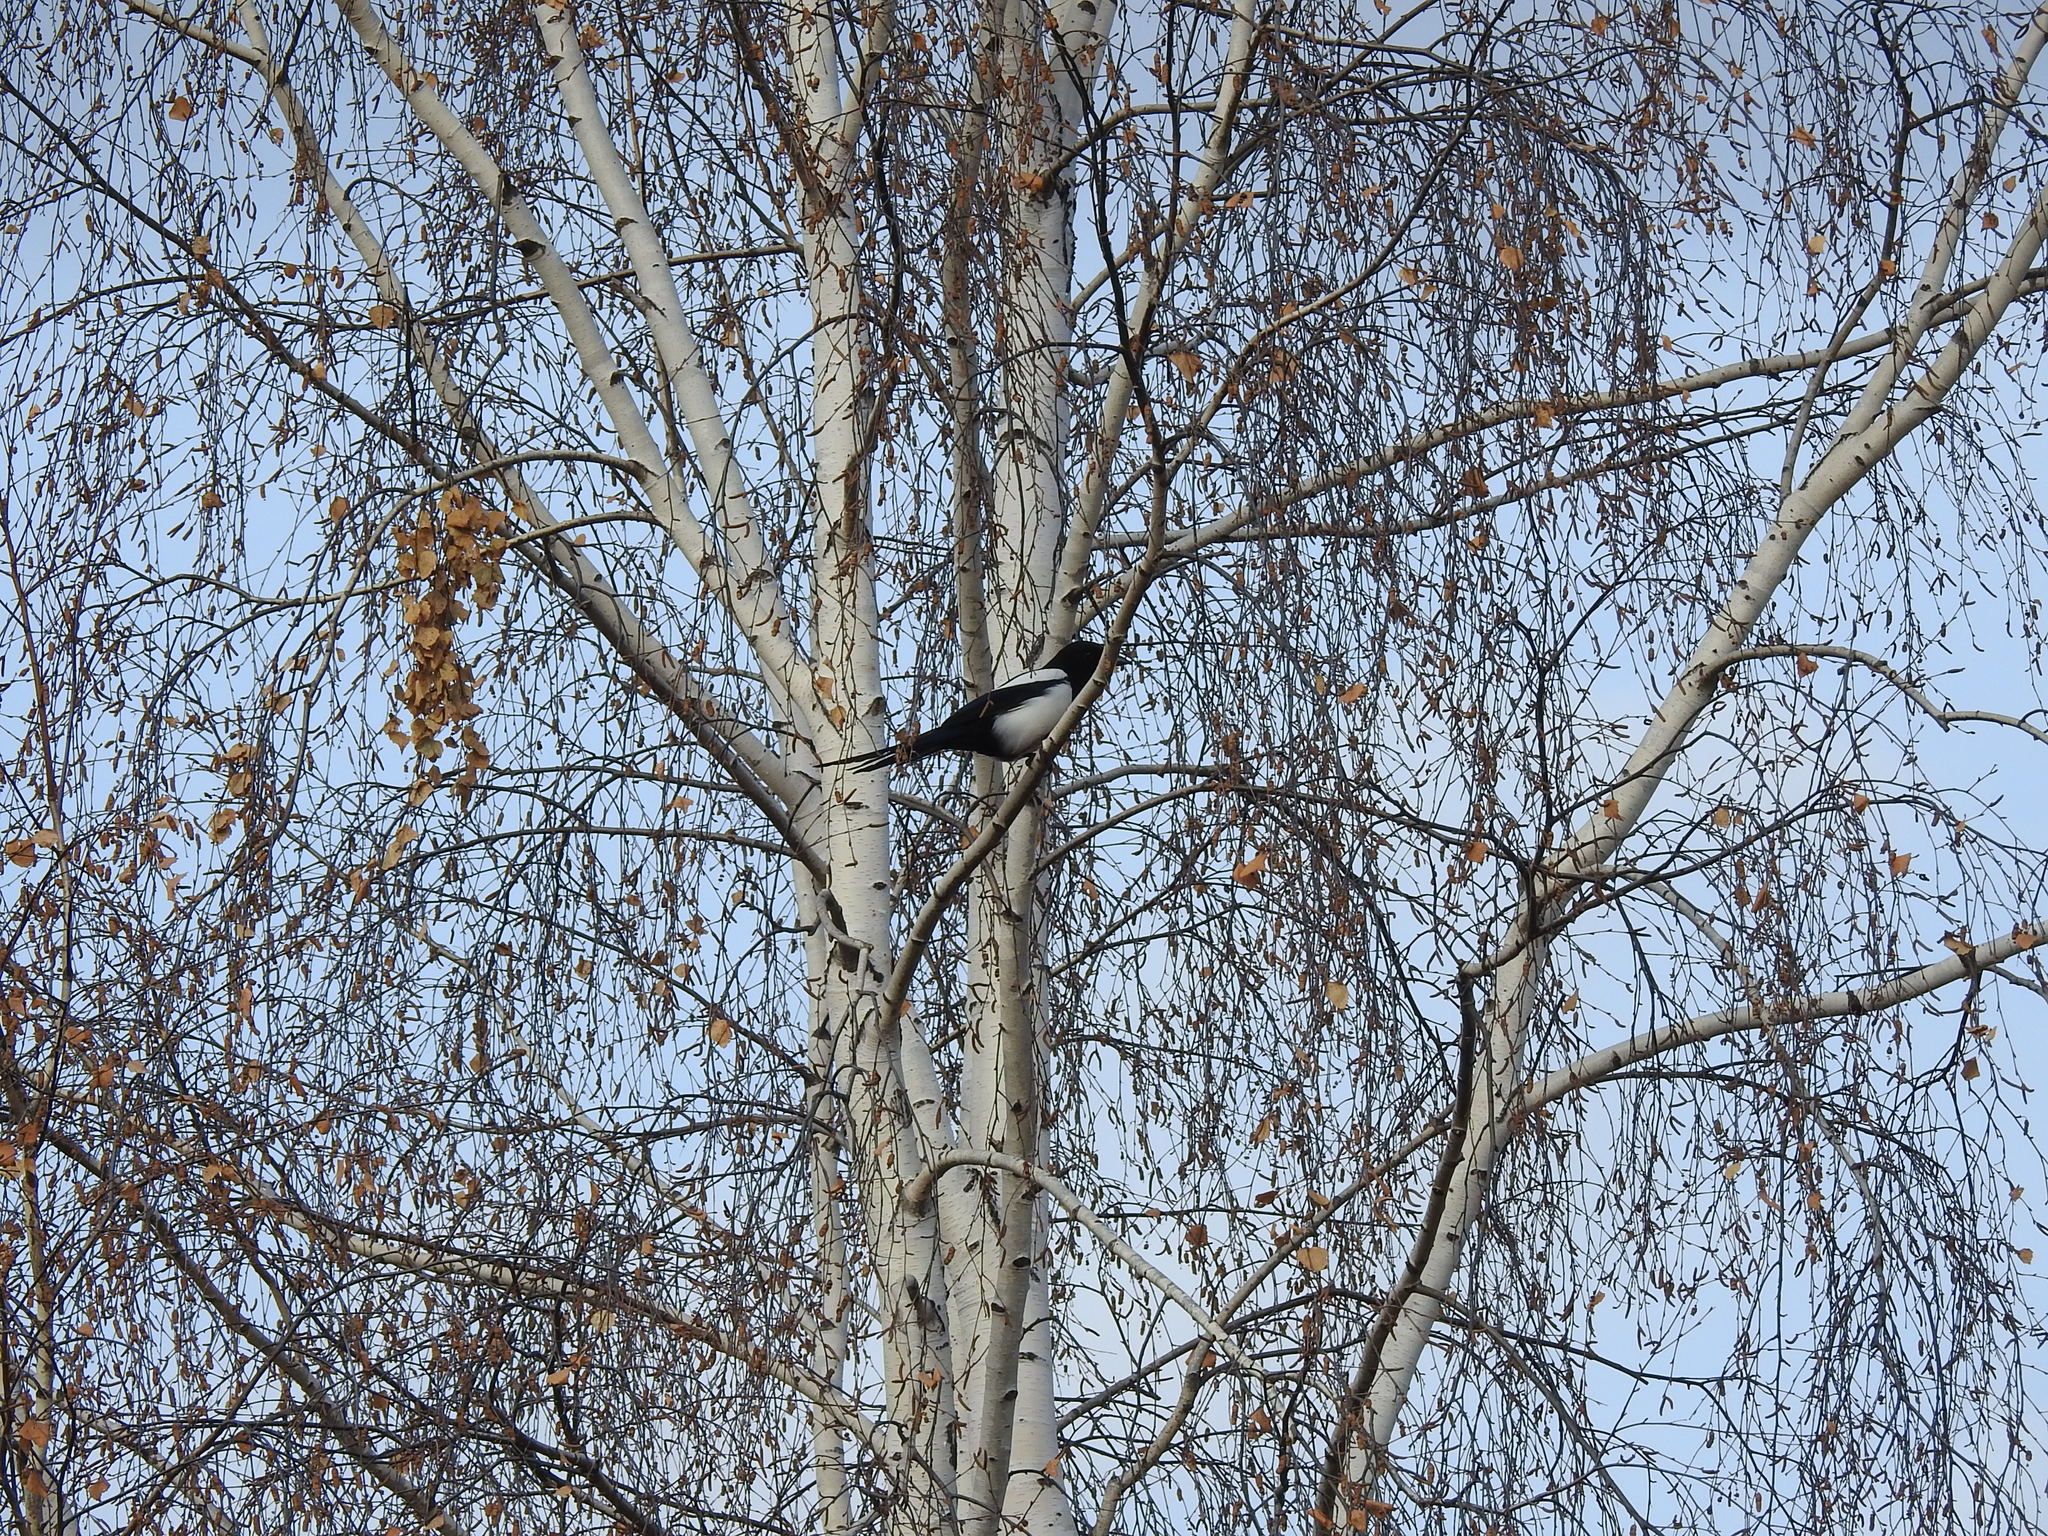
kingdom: Animalia
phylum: Chordata
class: Aves
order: Passeriformes
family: Corvidae
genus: Pica
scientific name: Pica pica
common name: Eurasian magpie
